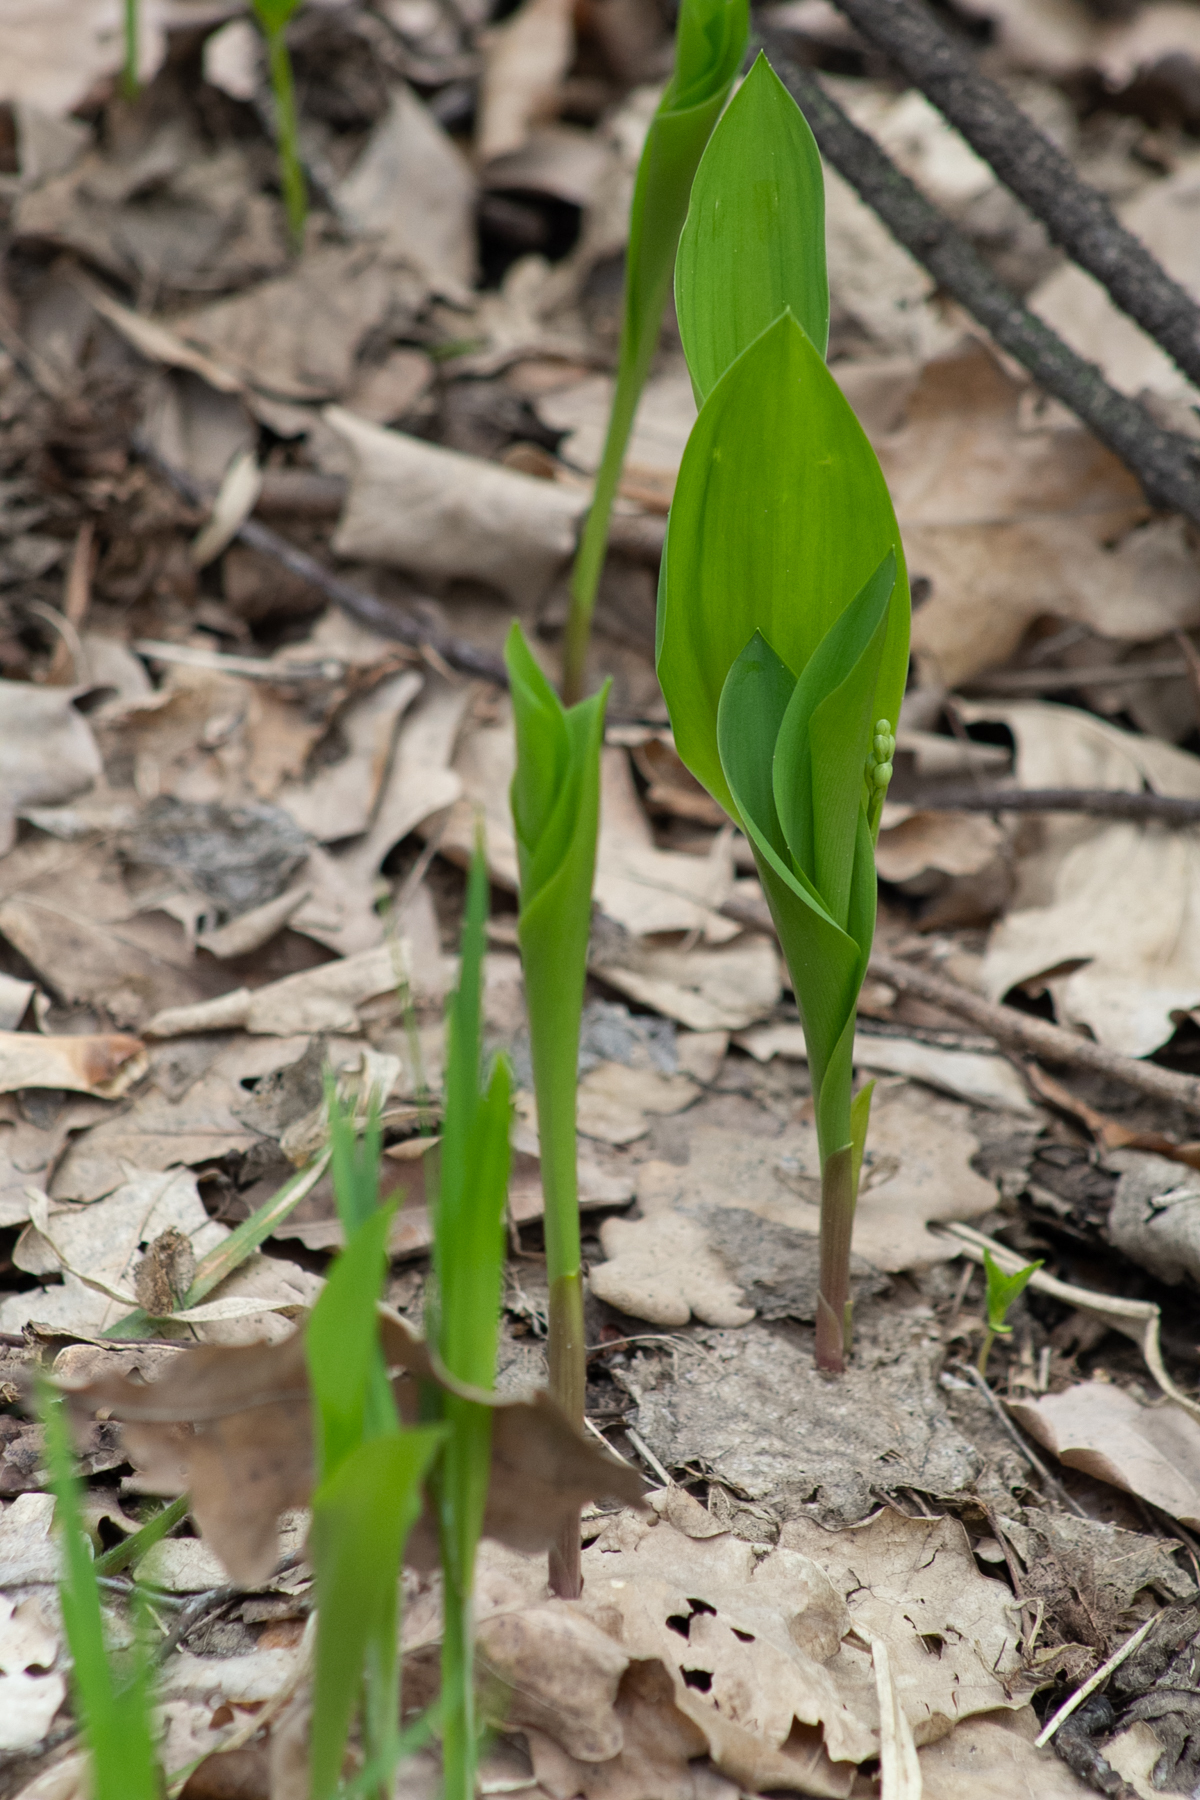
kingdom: Plantae
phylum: Tracheophyta
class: Liliopsida
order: Asparagales
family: Asparagaceae
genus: Convallaria
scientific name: Convallaria majalis
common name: Lily-of-the-valley
